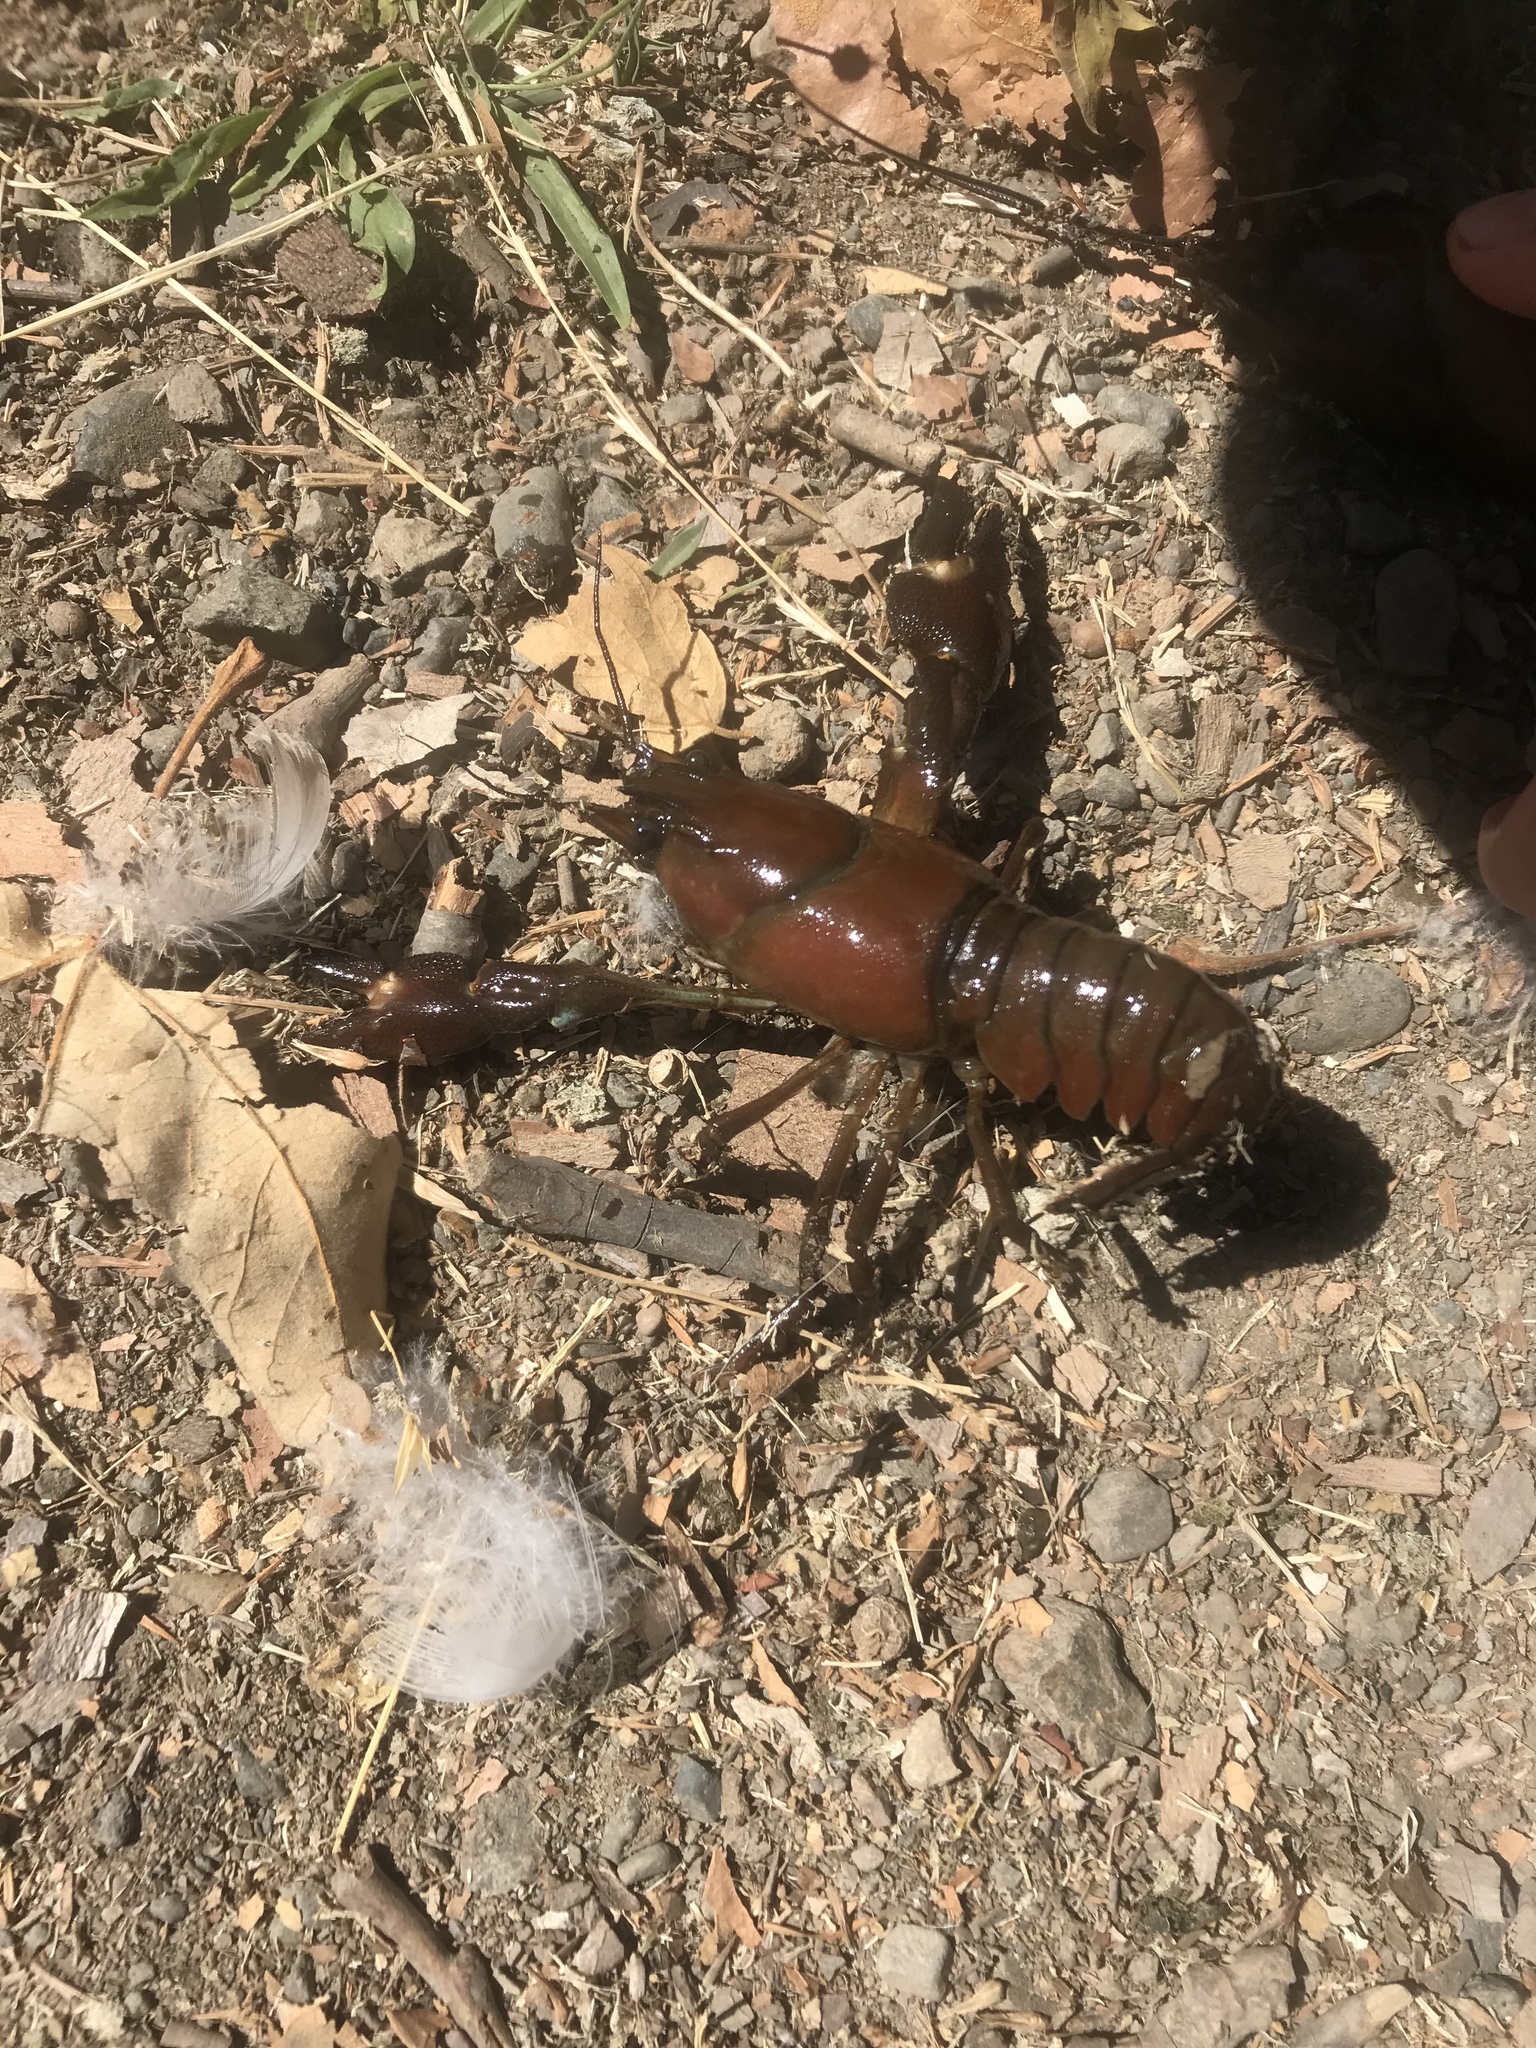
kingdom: Animalia
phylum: Arthropoda
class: Malacostraca
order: Decapoda
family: Astacidae
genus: Pacifastacus
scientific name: Pacifastacus leniusculus
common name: Signal crayfish
